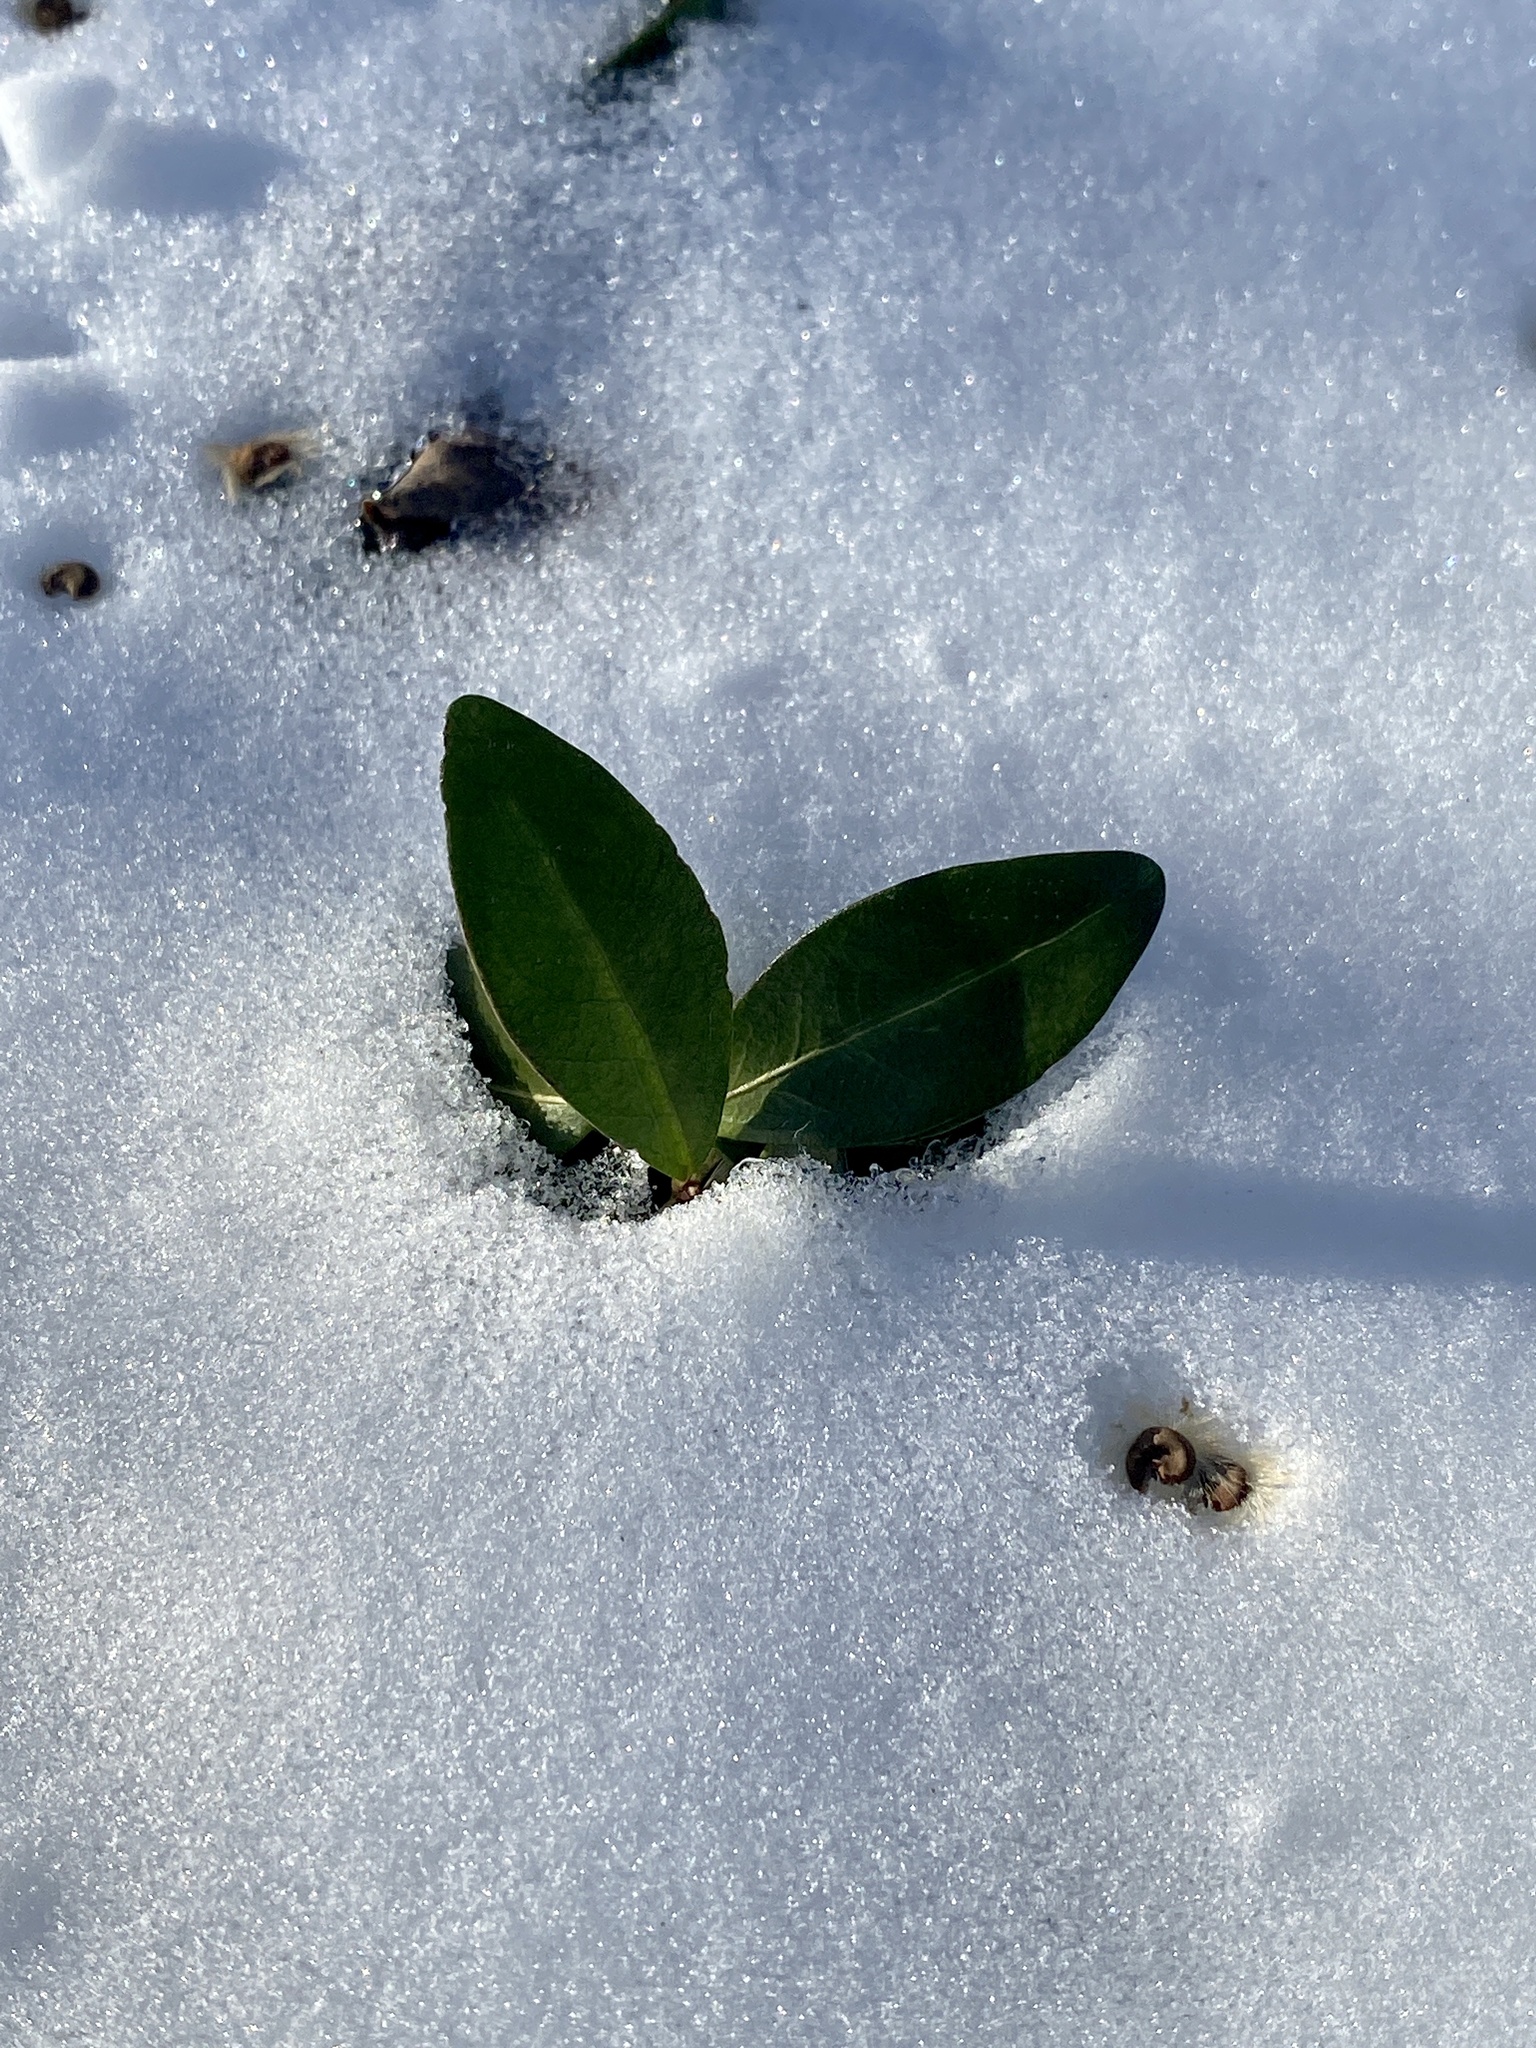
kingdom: Plantae
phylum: Tracheophyta
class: Magnoliopsida
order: Gentianales
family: Apocynaceae
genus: Vinca
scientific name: Vinca minor
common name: Lesser periwinkle
